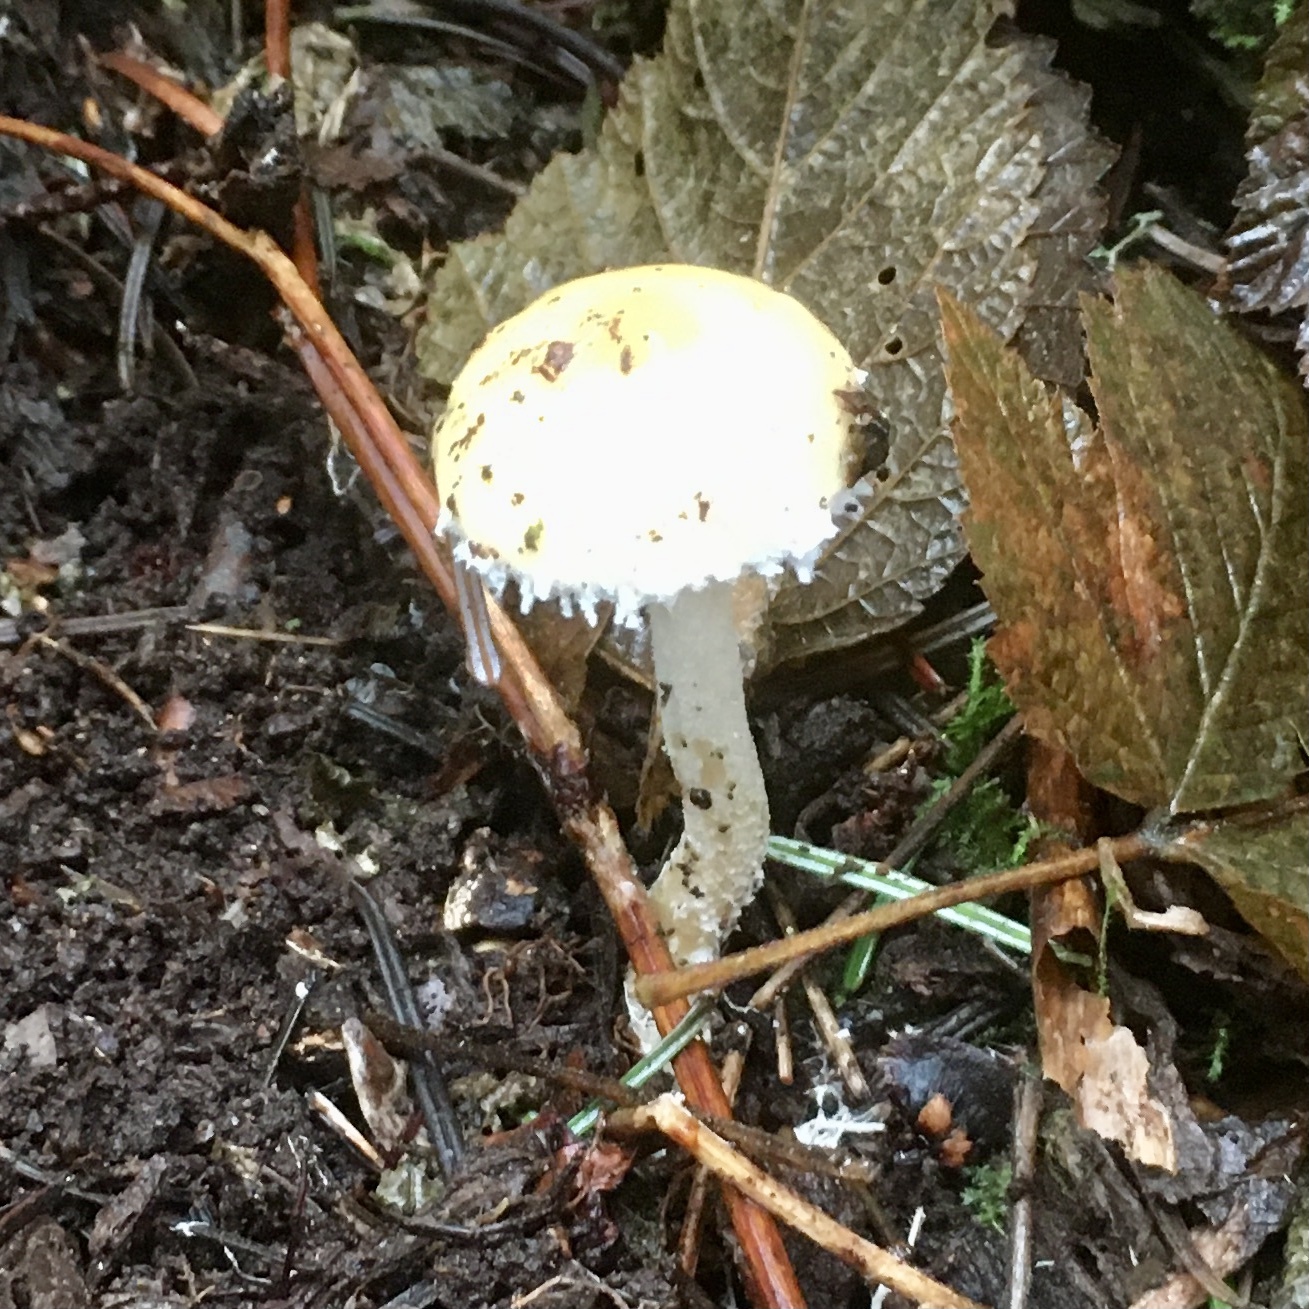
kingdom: Fungi
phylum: Basidiomycota
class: Agaricomycetes
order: Agaricales
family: Strophariaceae
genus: Stropharia
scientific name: Stropharia ambigua
